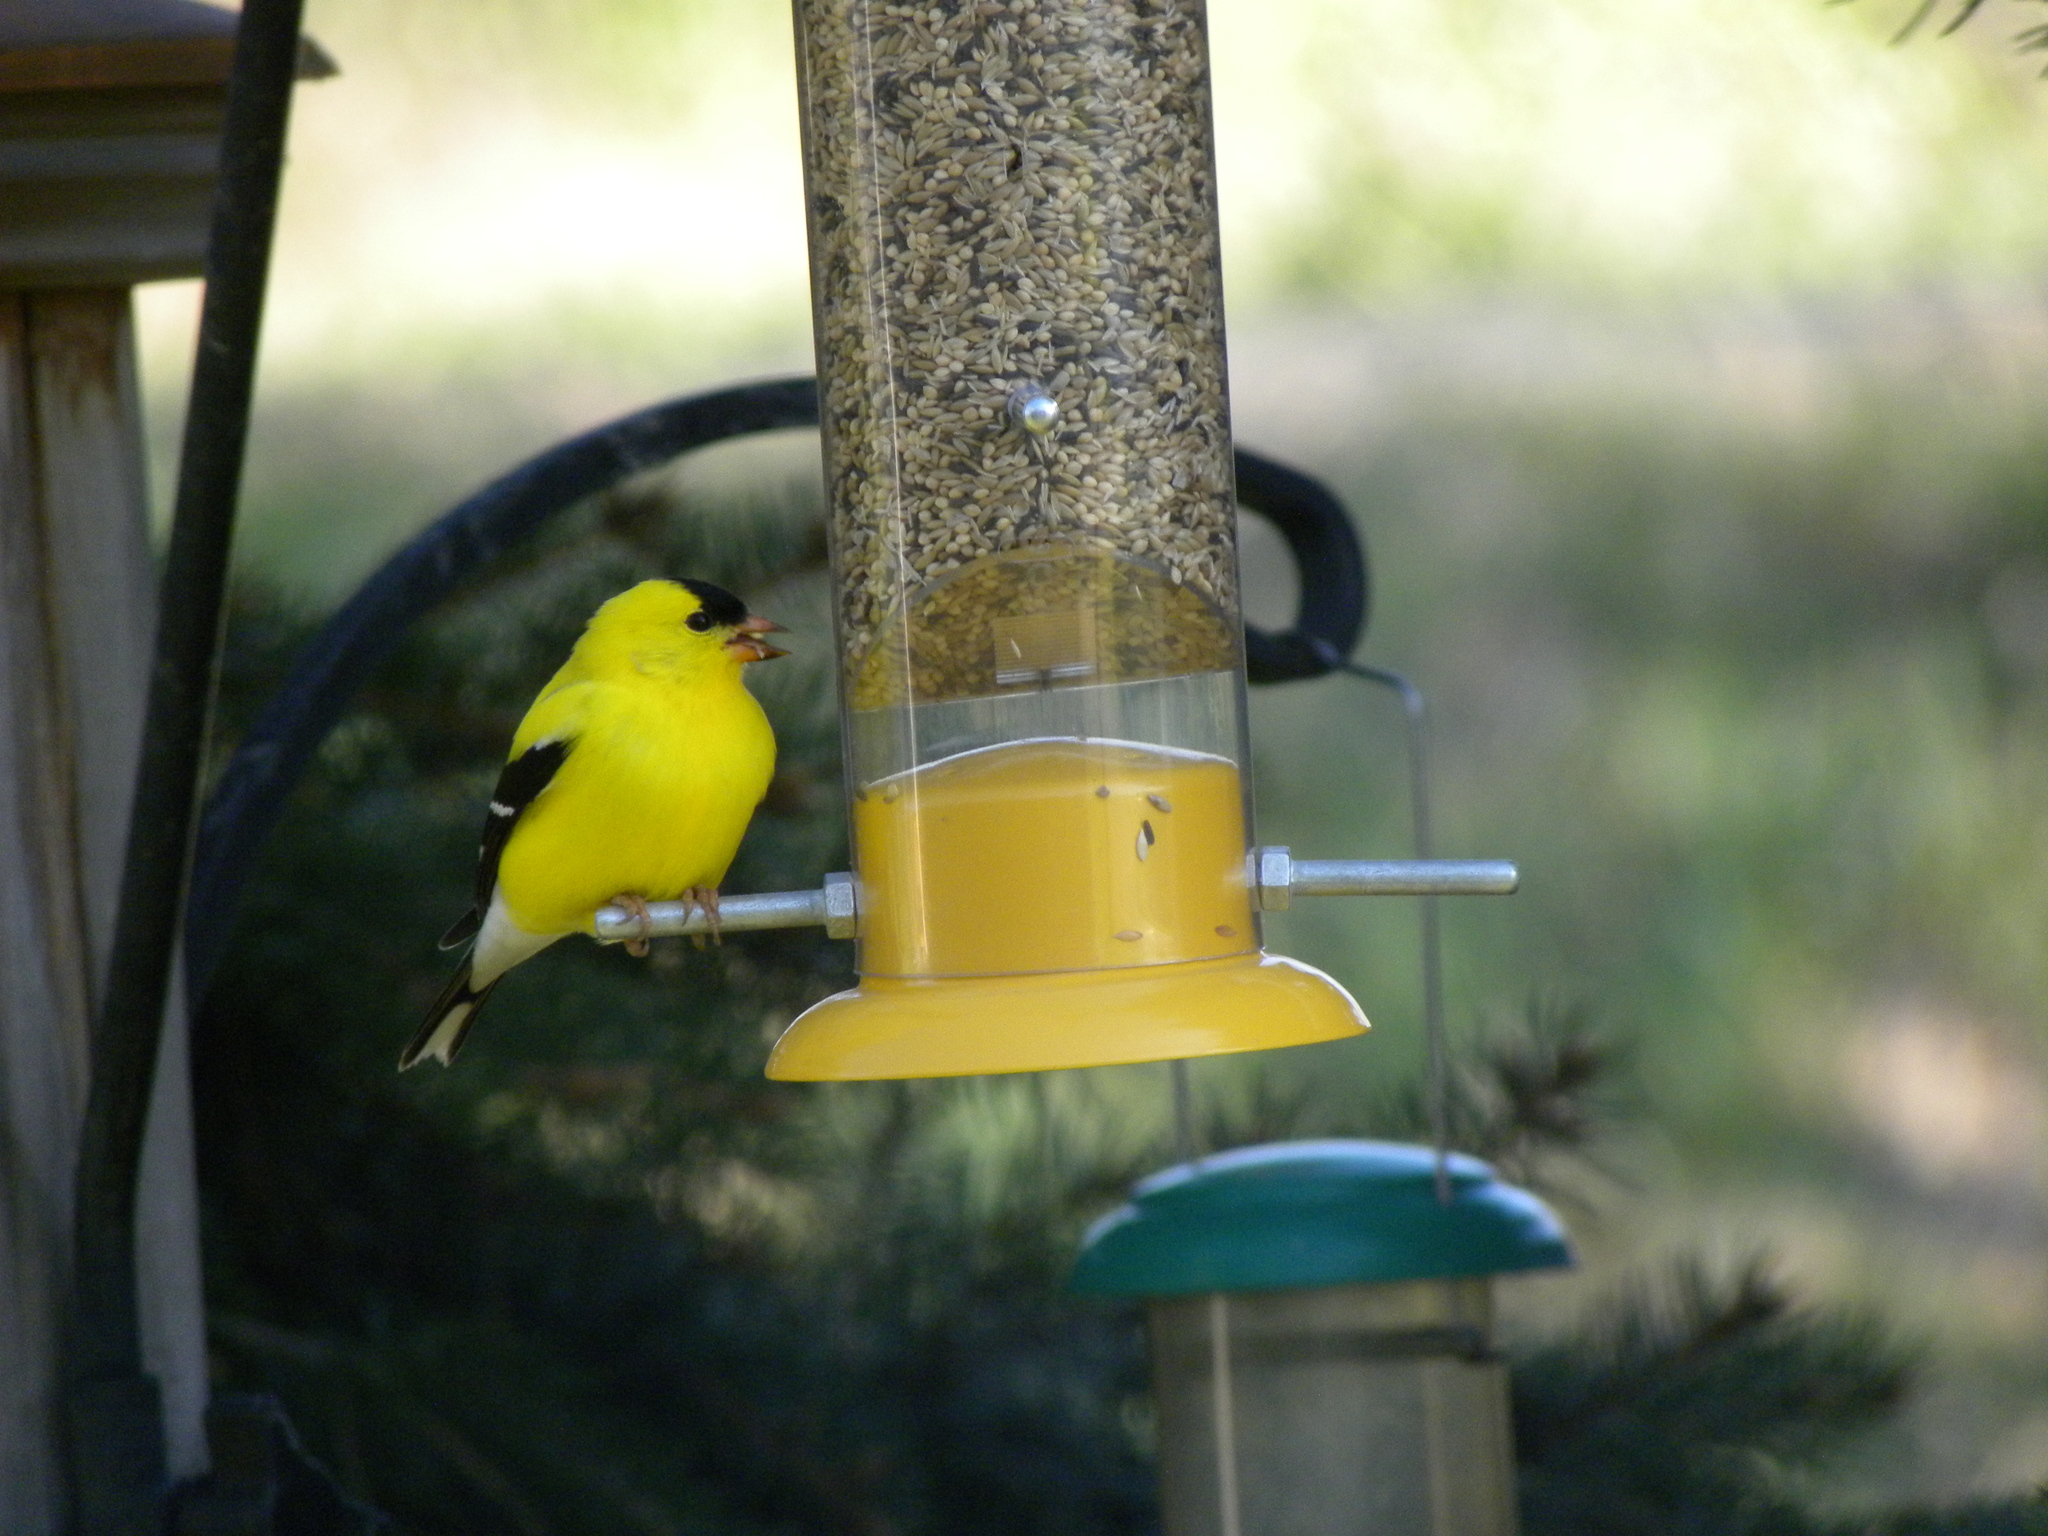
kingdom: Animalia
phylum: Chordata
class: Aves
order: Passeriformes
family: Fringillidae
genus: Spinus
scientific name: Spinus tristis
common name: American goldfinch
